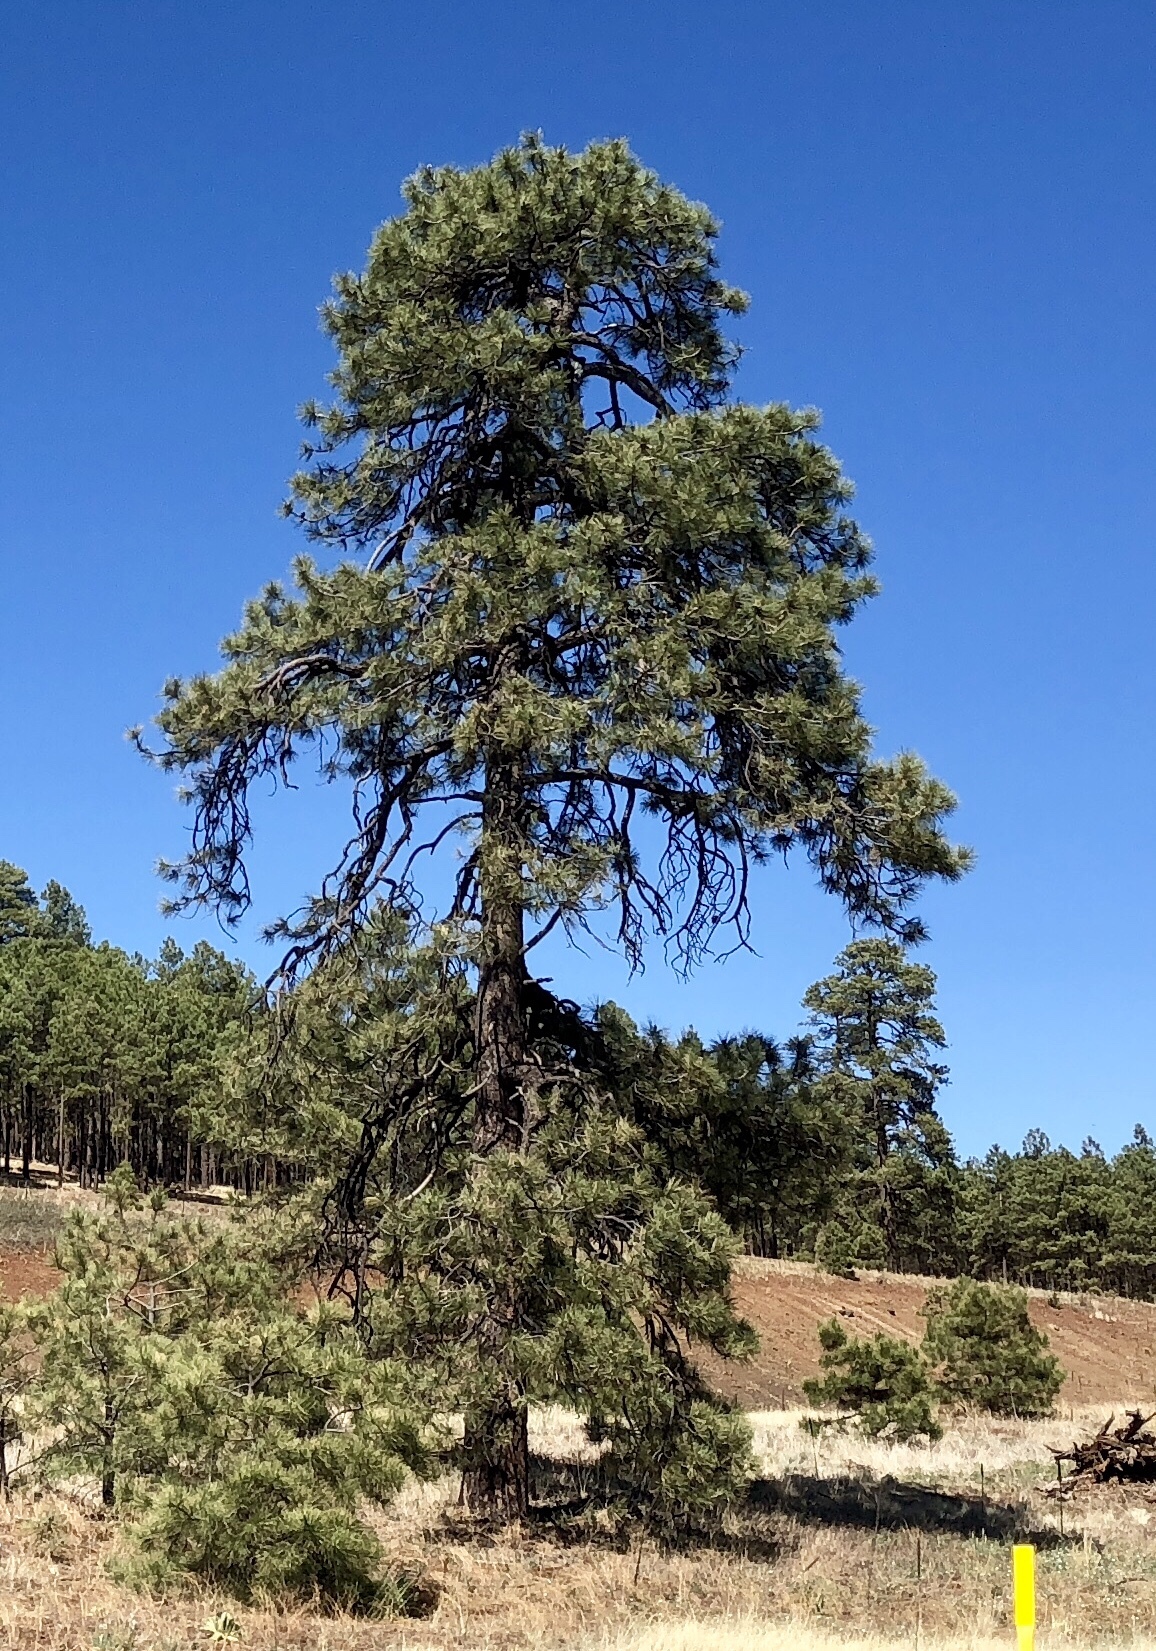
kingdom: Plantae
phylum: Tracheophyta
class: Pinopsida
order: Pinales
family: Pinaceae
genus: Pinus
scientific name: Pinus ponderosa
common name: Western yellow-pine
